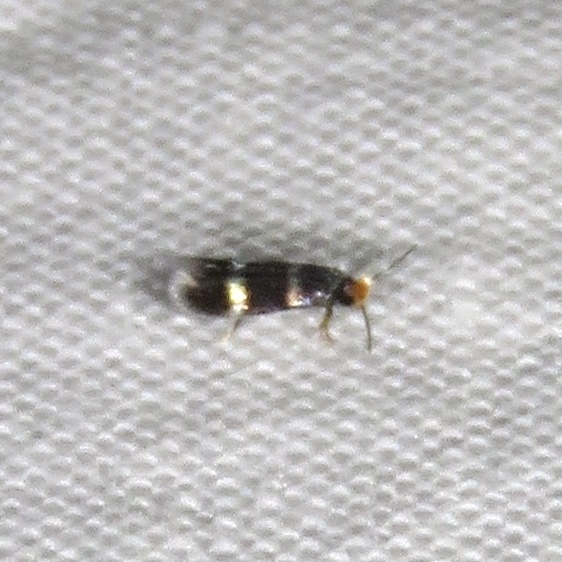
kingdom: Animalia
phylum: Arthropoda
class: Insecta
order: Lepidoptera
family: Nepticulidae
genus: Stigmella
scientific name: Stigmella prunifoliella
